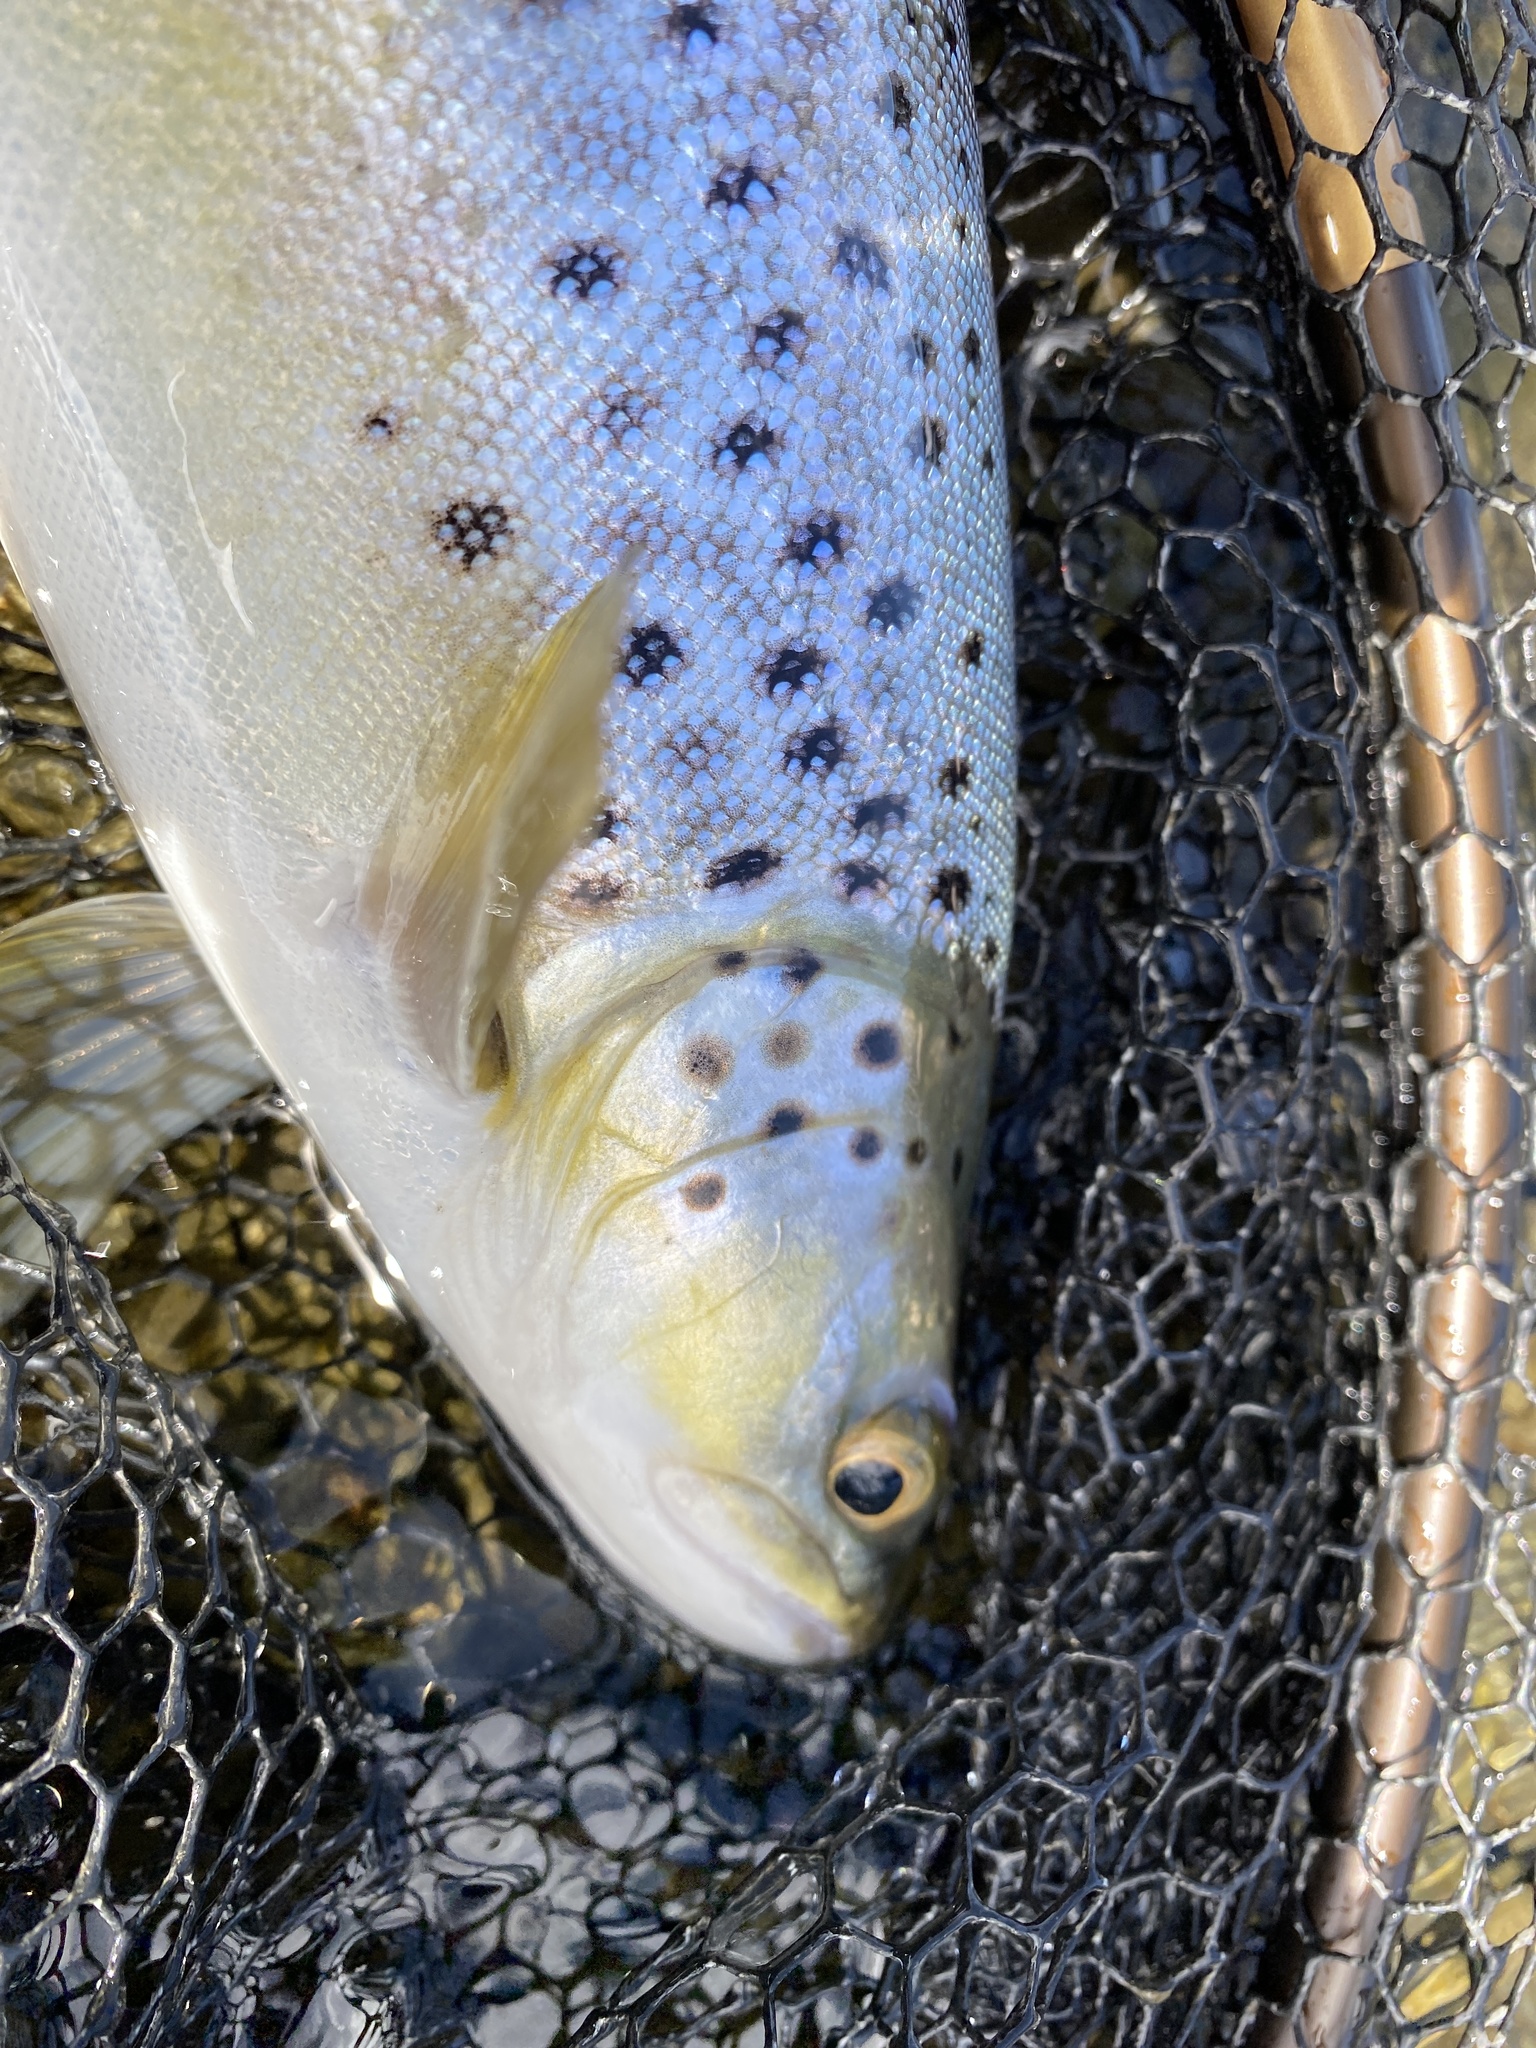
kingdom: Animalia
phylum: Chordata
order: Salmoniformes
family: Salmonidae
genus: Salmo
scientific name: Salmo trutta
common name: Brown trout
